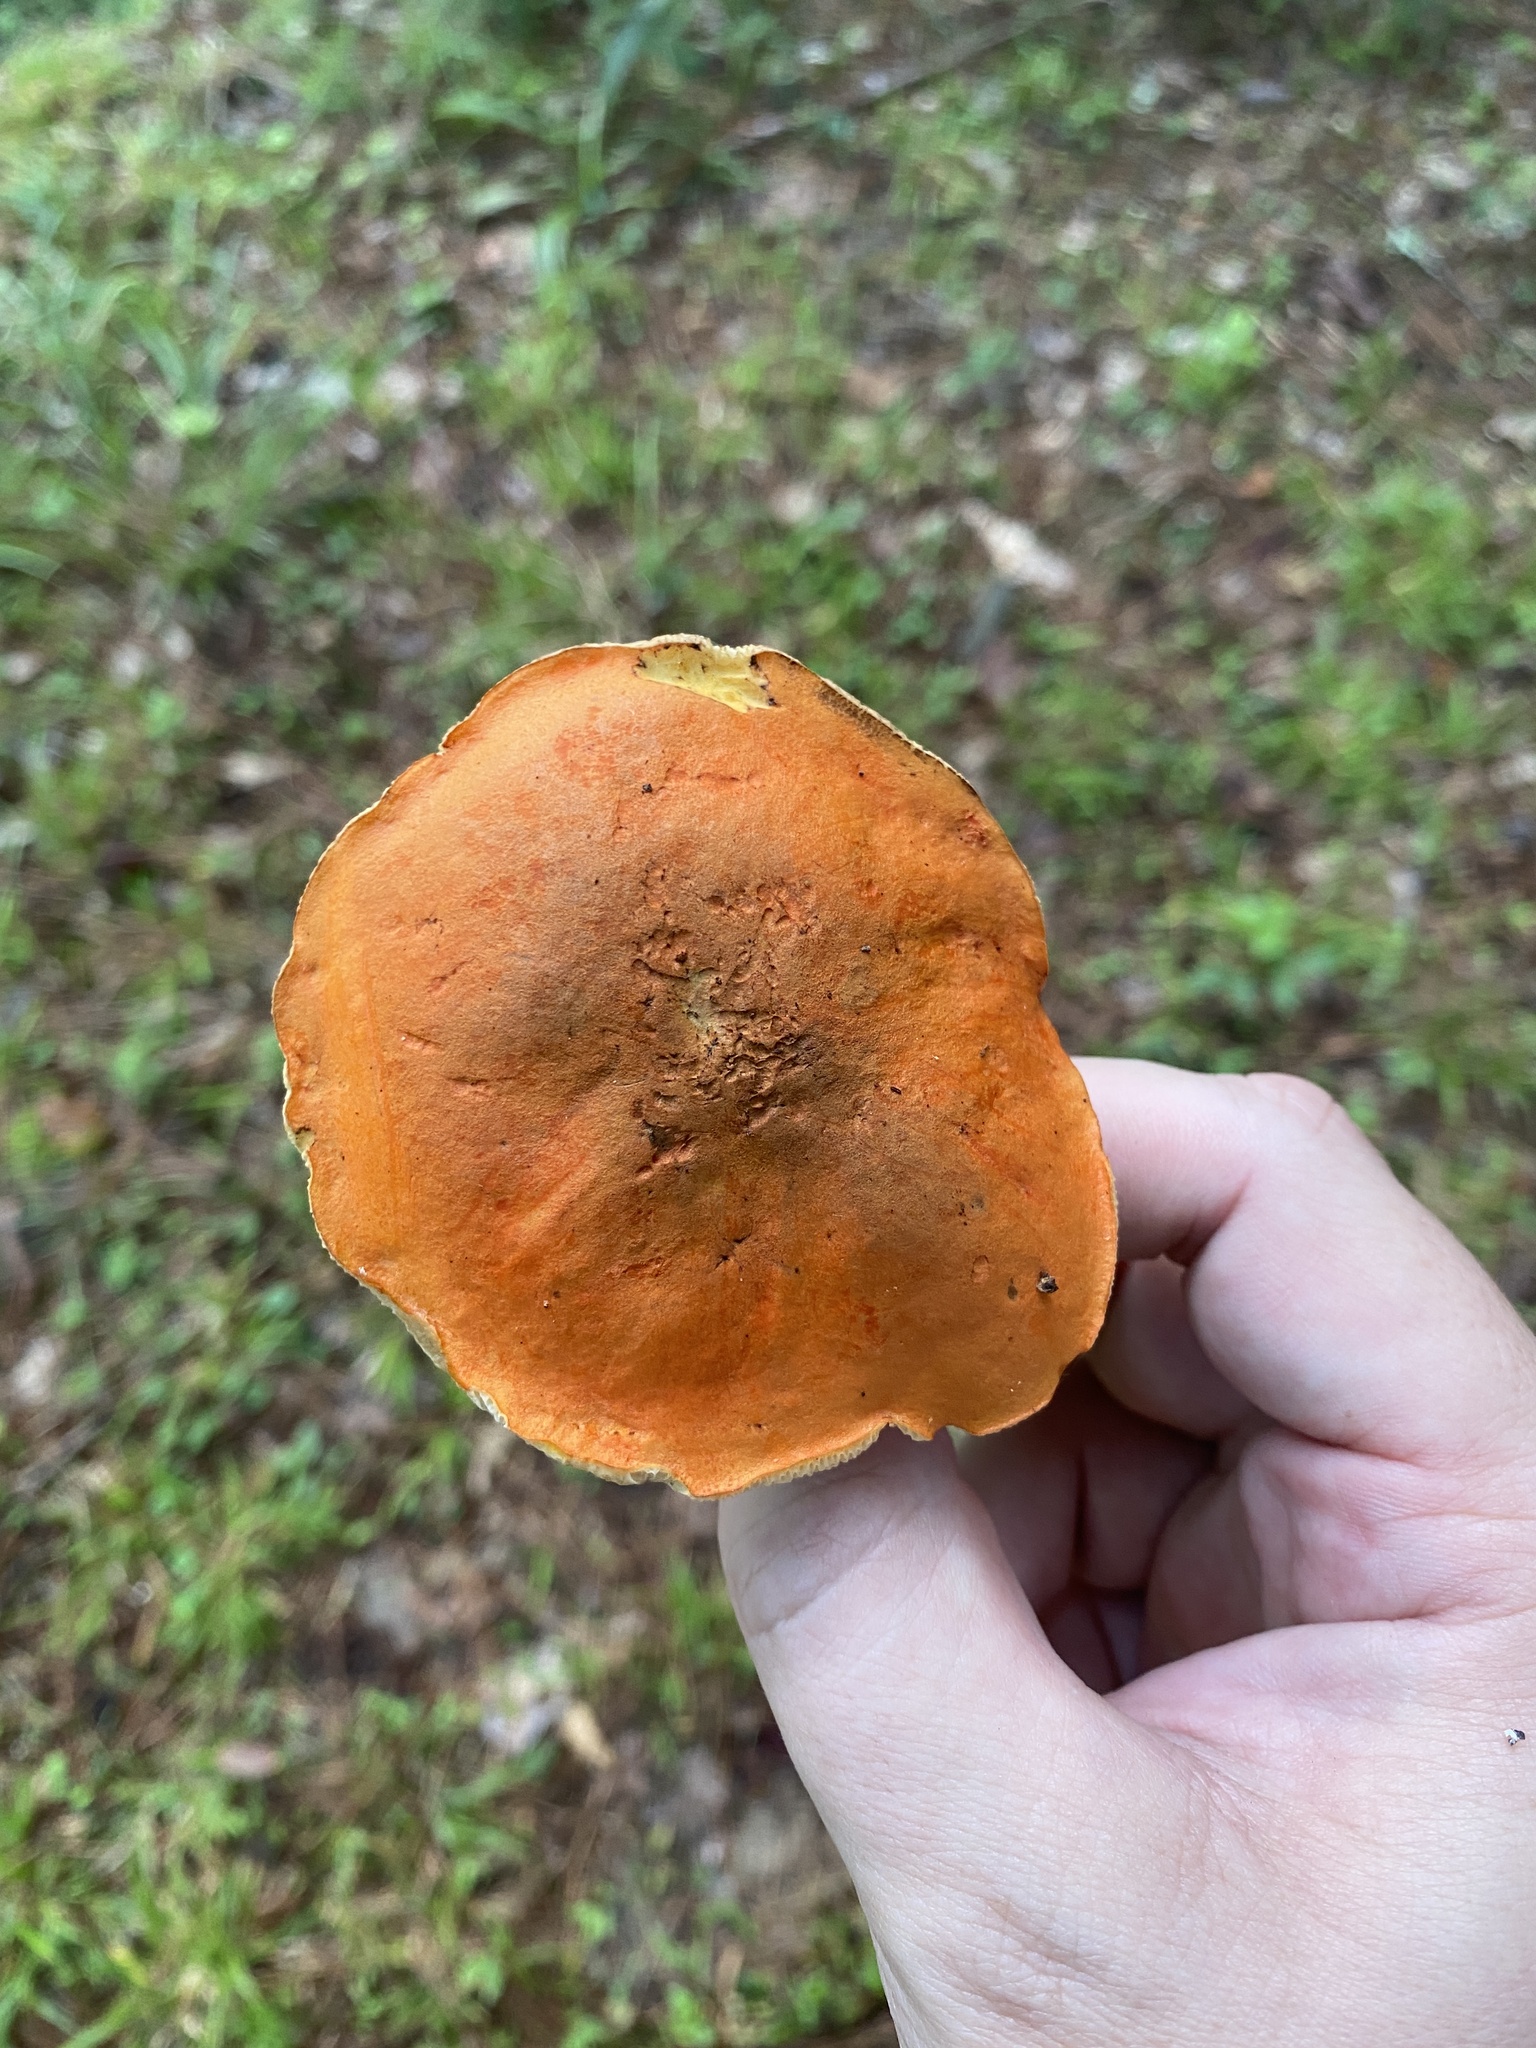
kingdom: Fungi
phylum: Basidiomycota
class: Agaricomycetes
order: Boletales
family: Boletaceae
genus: Tylopilus
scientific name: Tylopilus balloui
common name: Burnt-orange bolete
